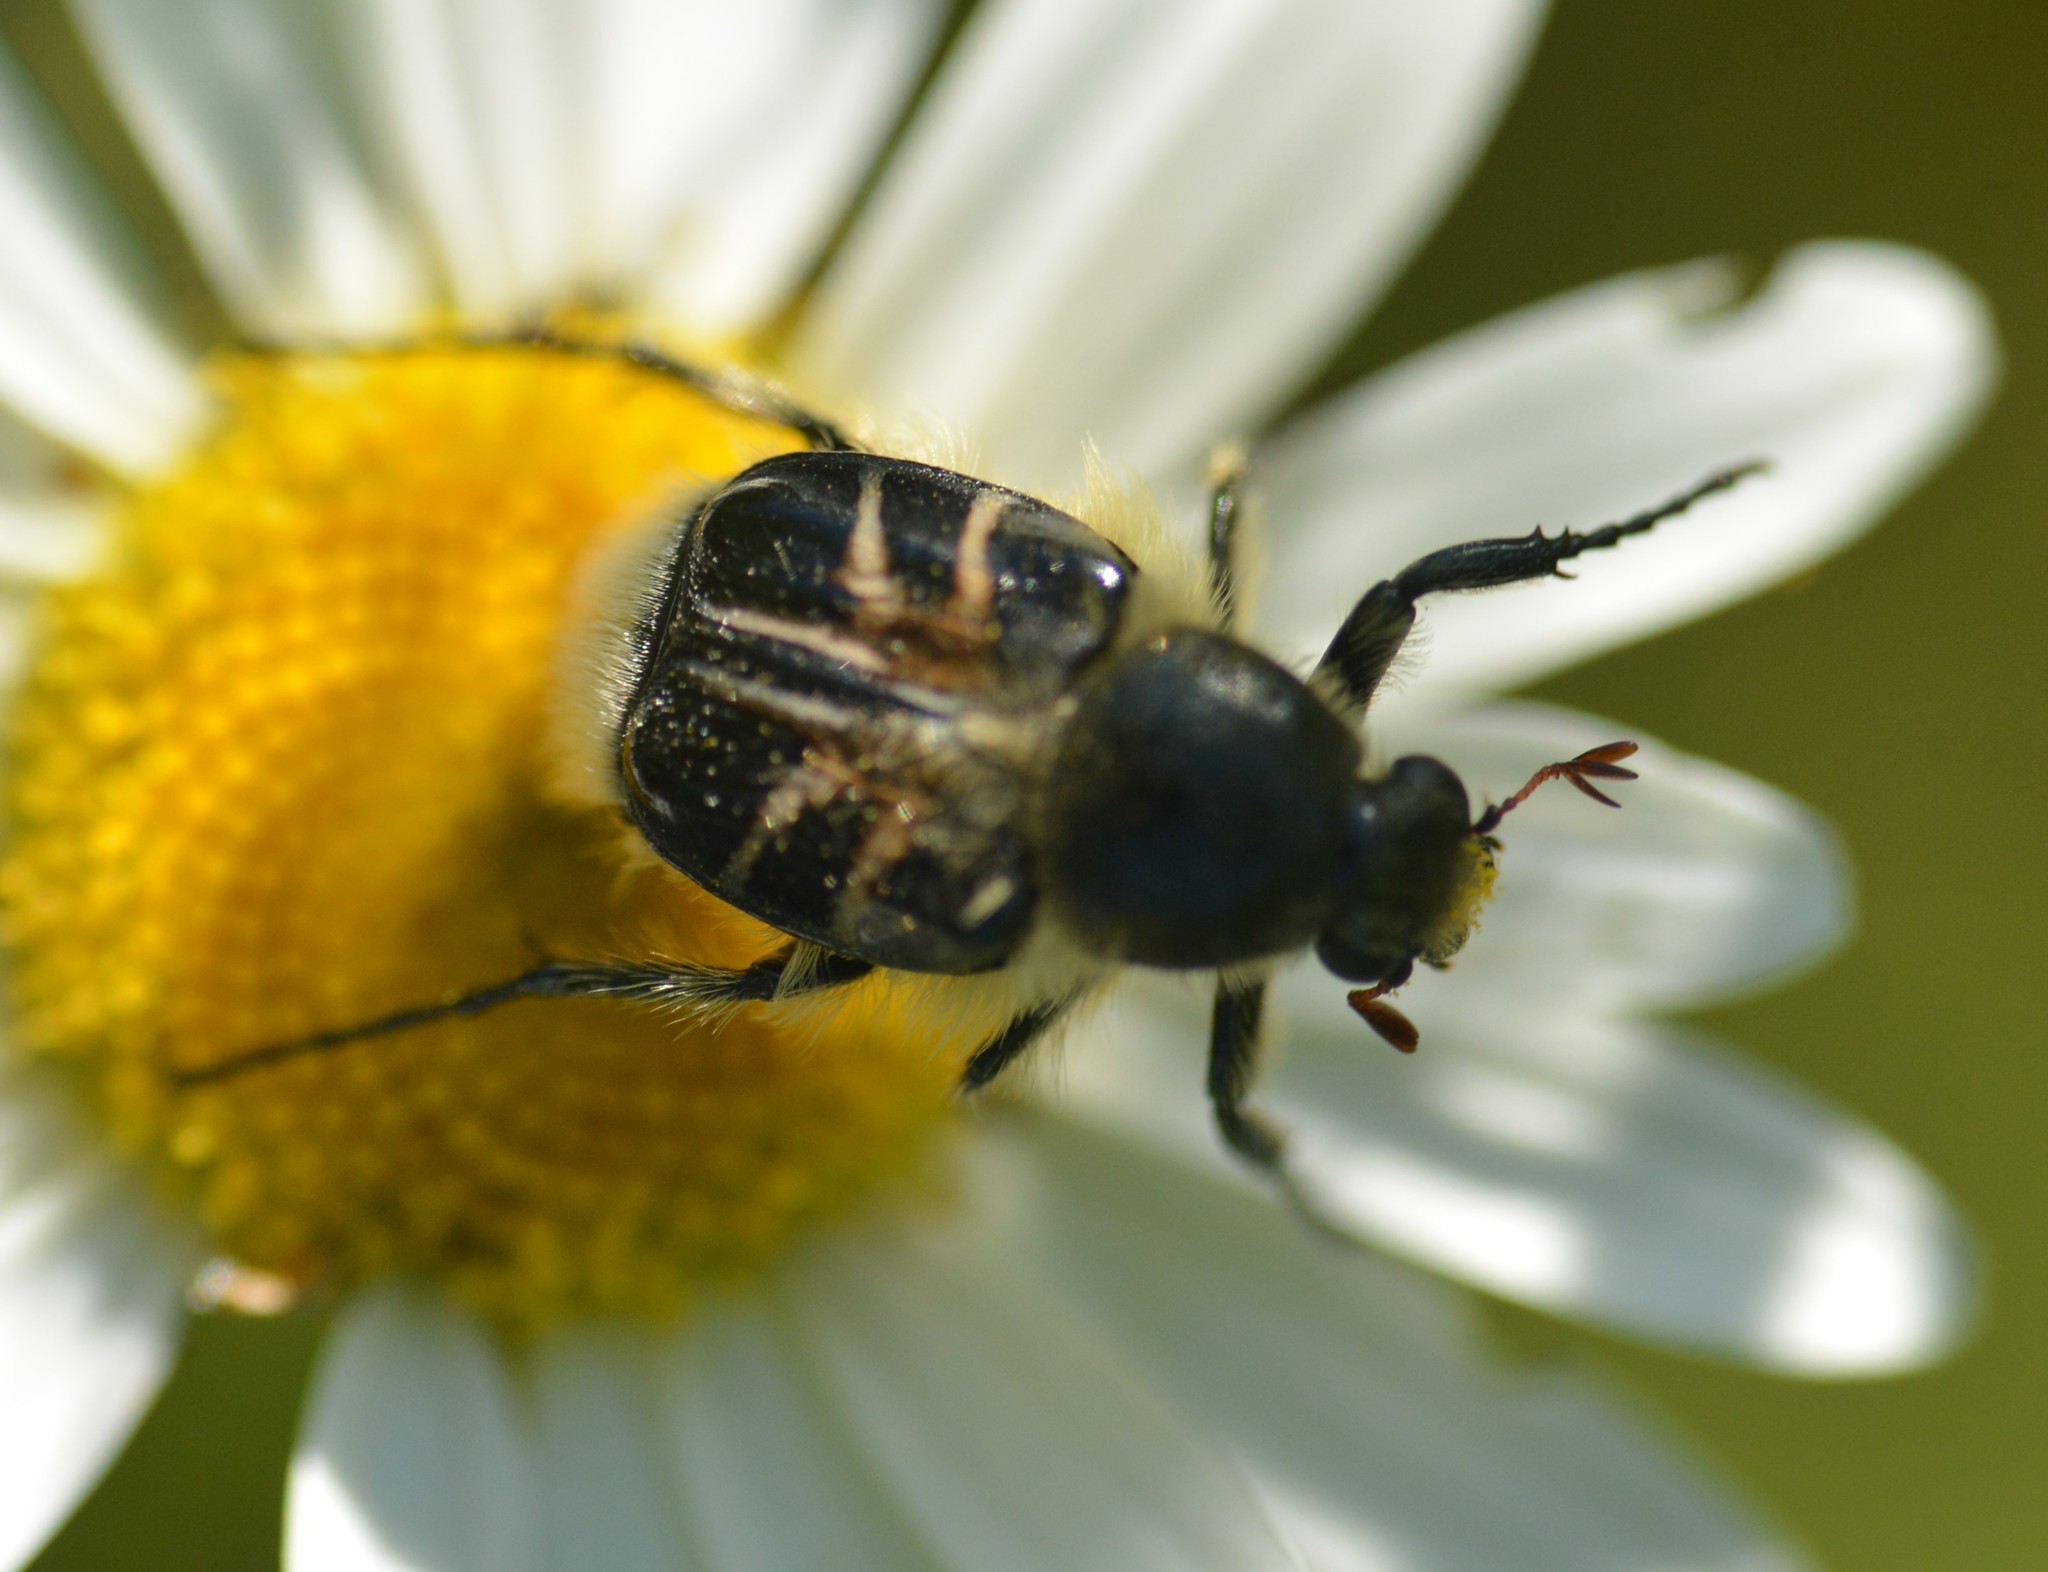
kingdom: Animalia
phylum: Arthropoda
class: Insecta
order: Coleoptera
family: Scarabaeidae
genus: Trichiotinus
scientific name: Trichiotinus assimilis
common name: Bee-mimic beetle
